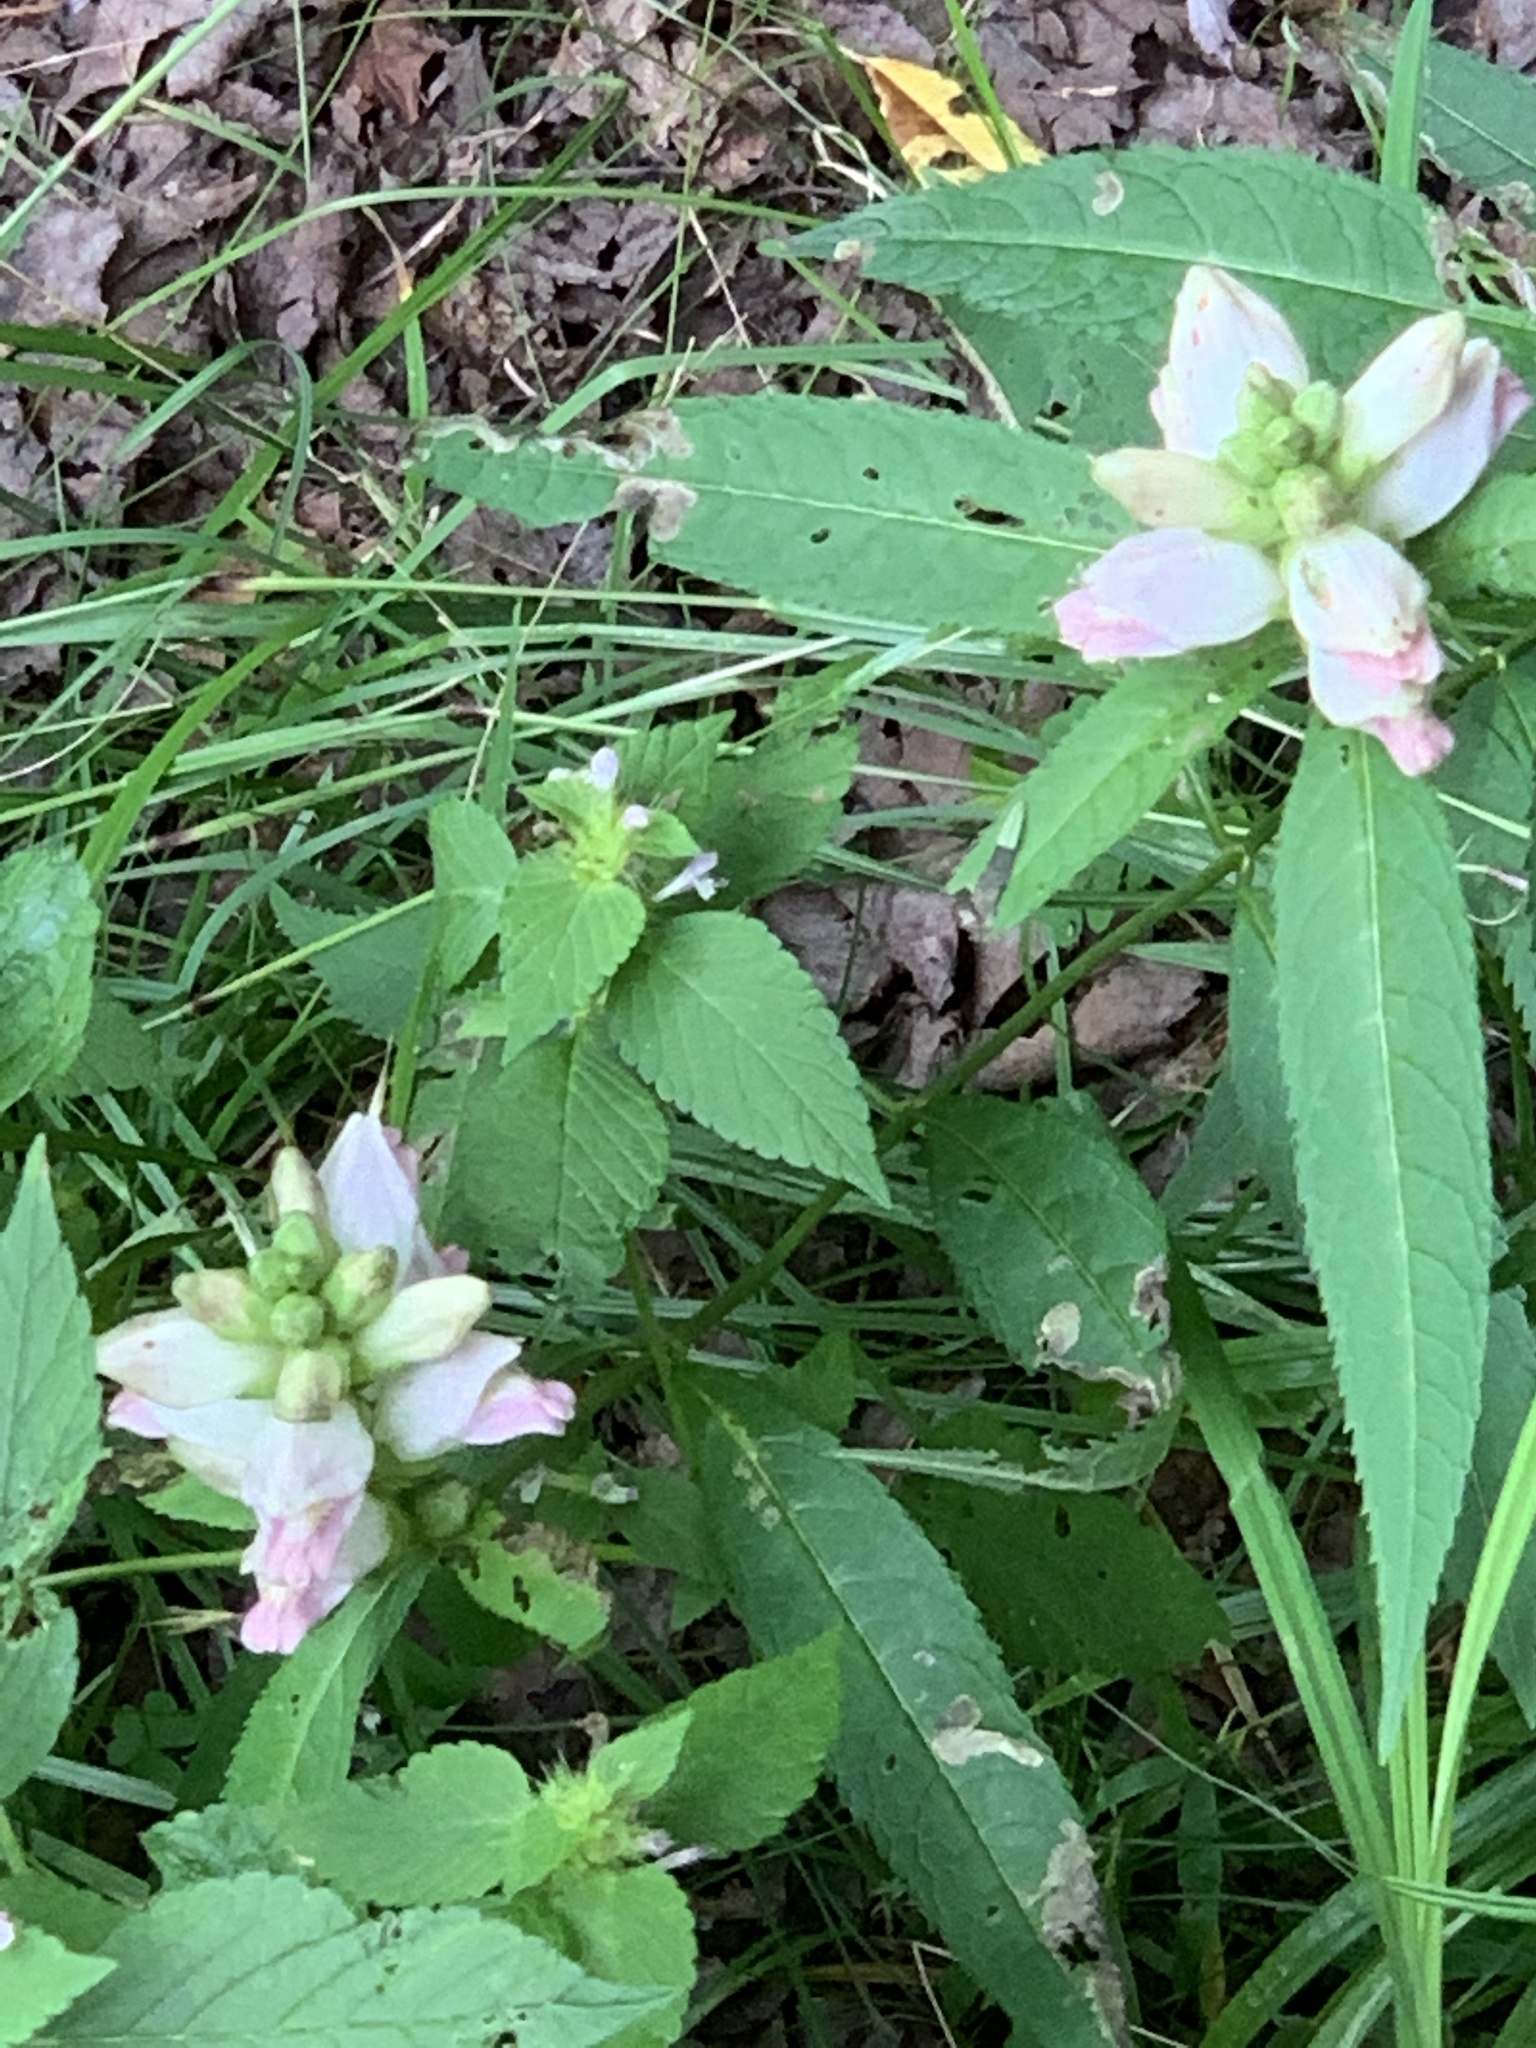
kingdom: Plantae
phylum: Tracheophyta
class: Magnoliopsida
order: Lamiales
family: Plantaginaceae
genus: Chelone
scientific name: Chelone glabra
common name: Snakehead
